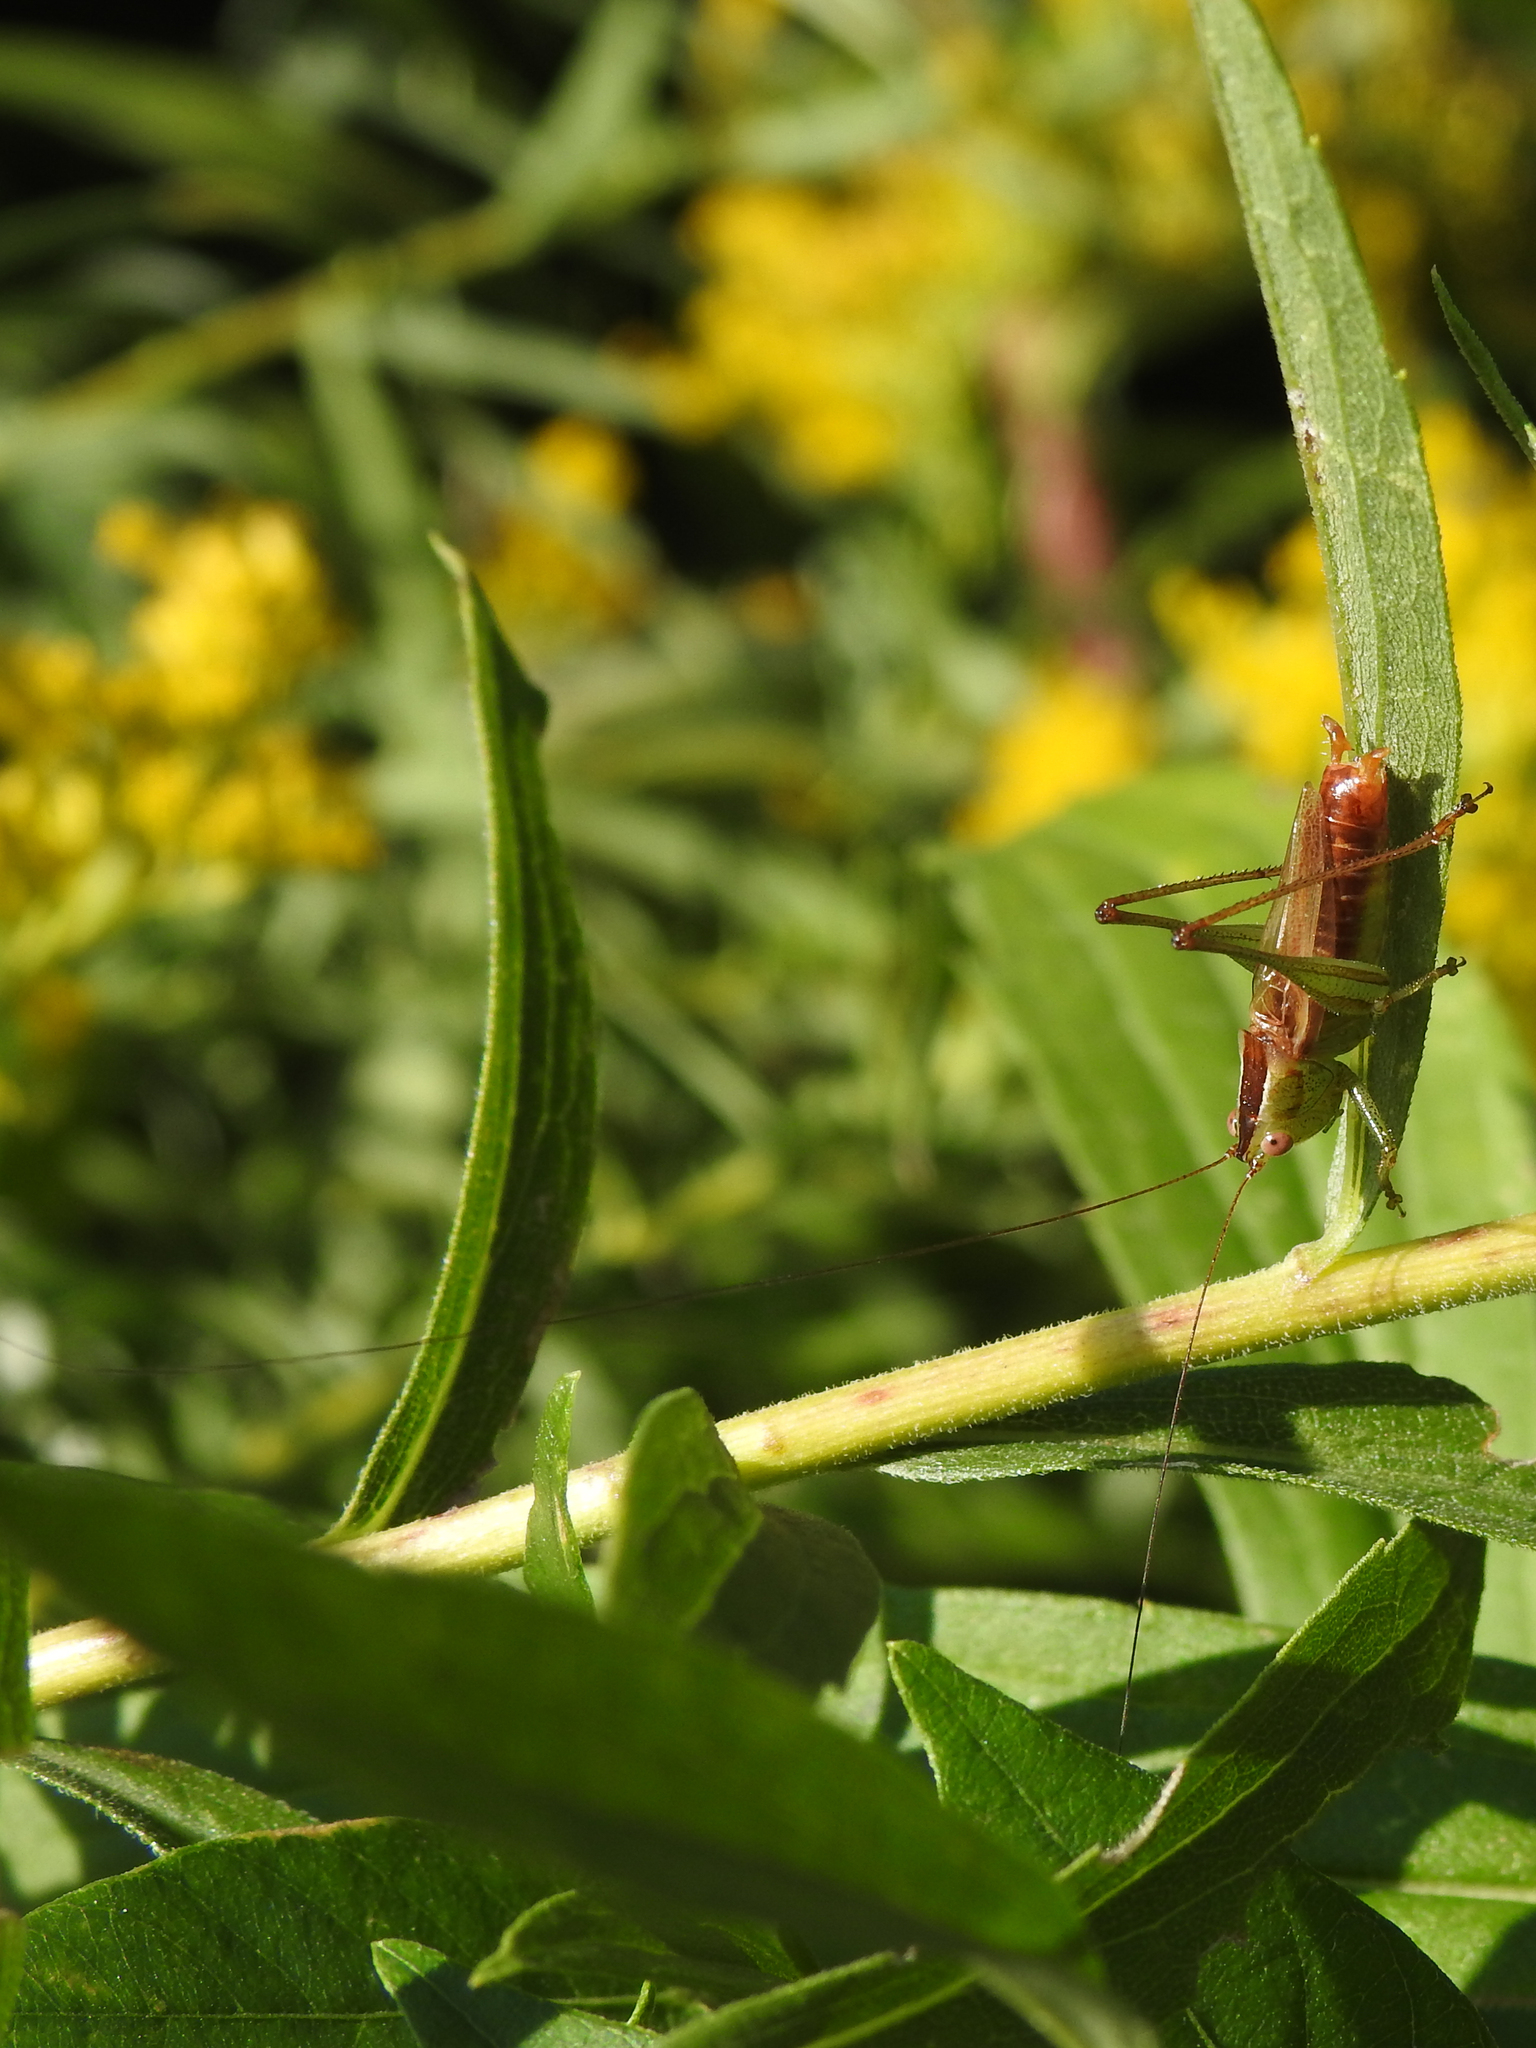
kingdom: Animalia
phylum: Arthropoda
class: Insecta
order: Orthoptera
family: Tettigoniidae
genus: Conocephalus
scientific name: Conocephalus brevipennis
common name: Short-winged meadow katydid
